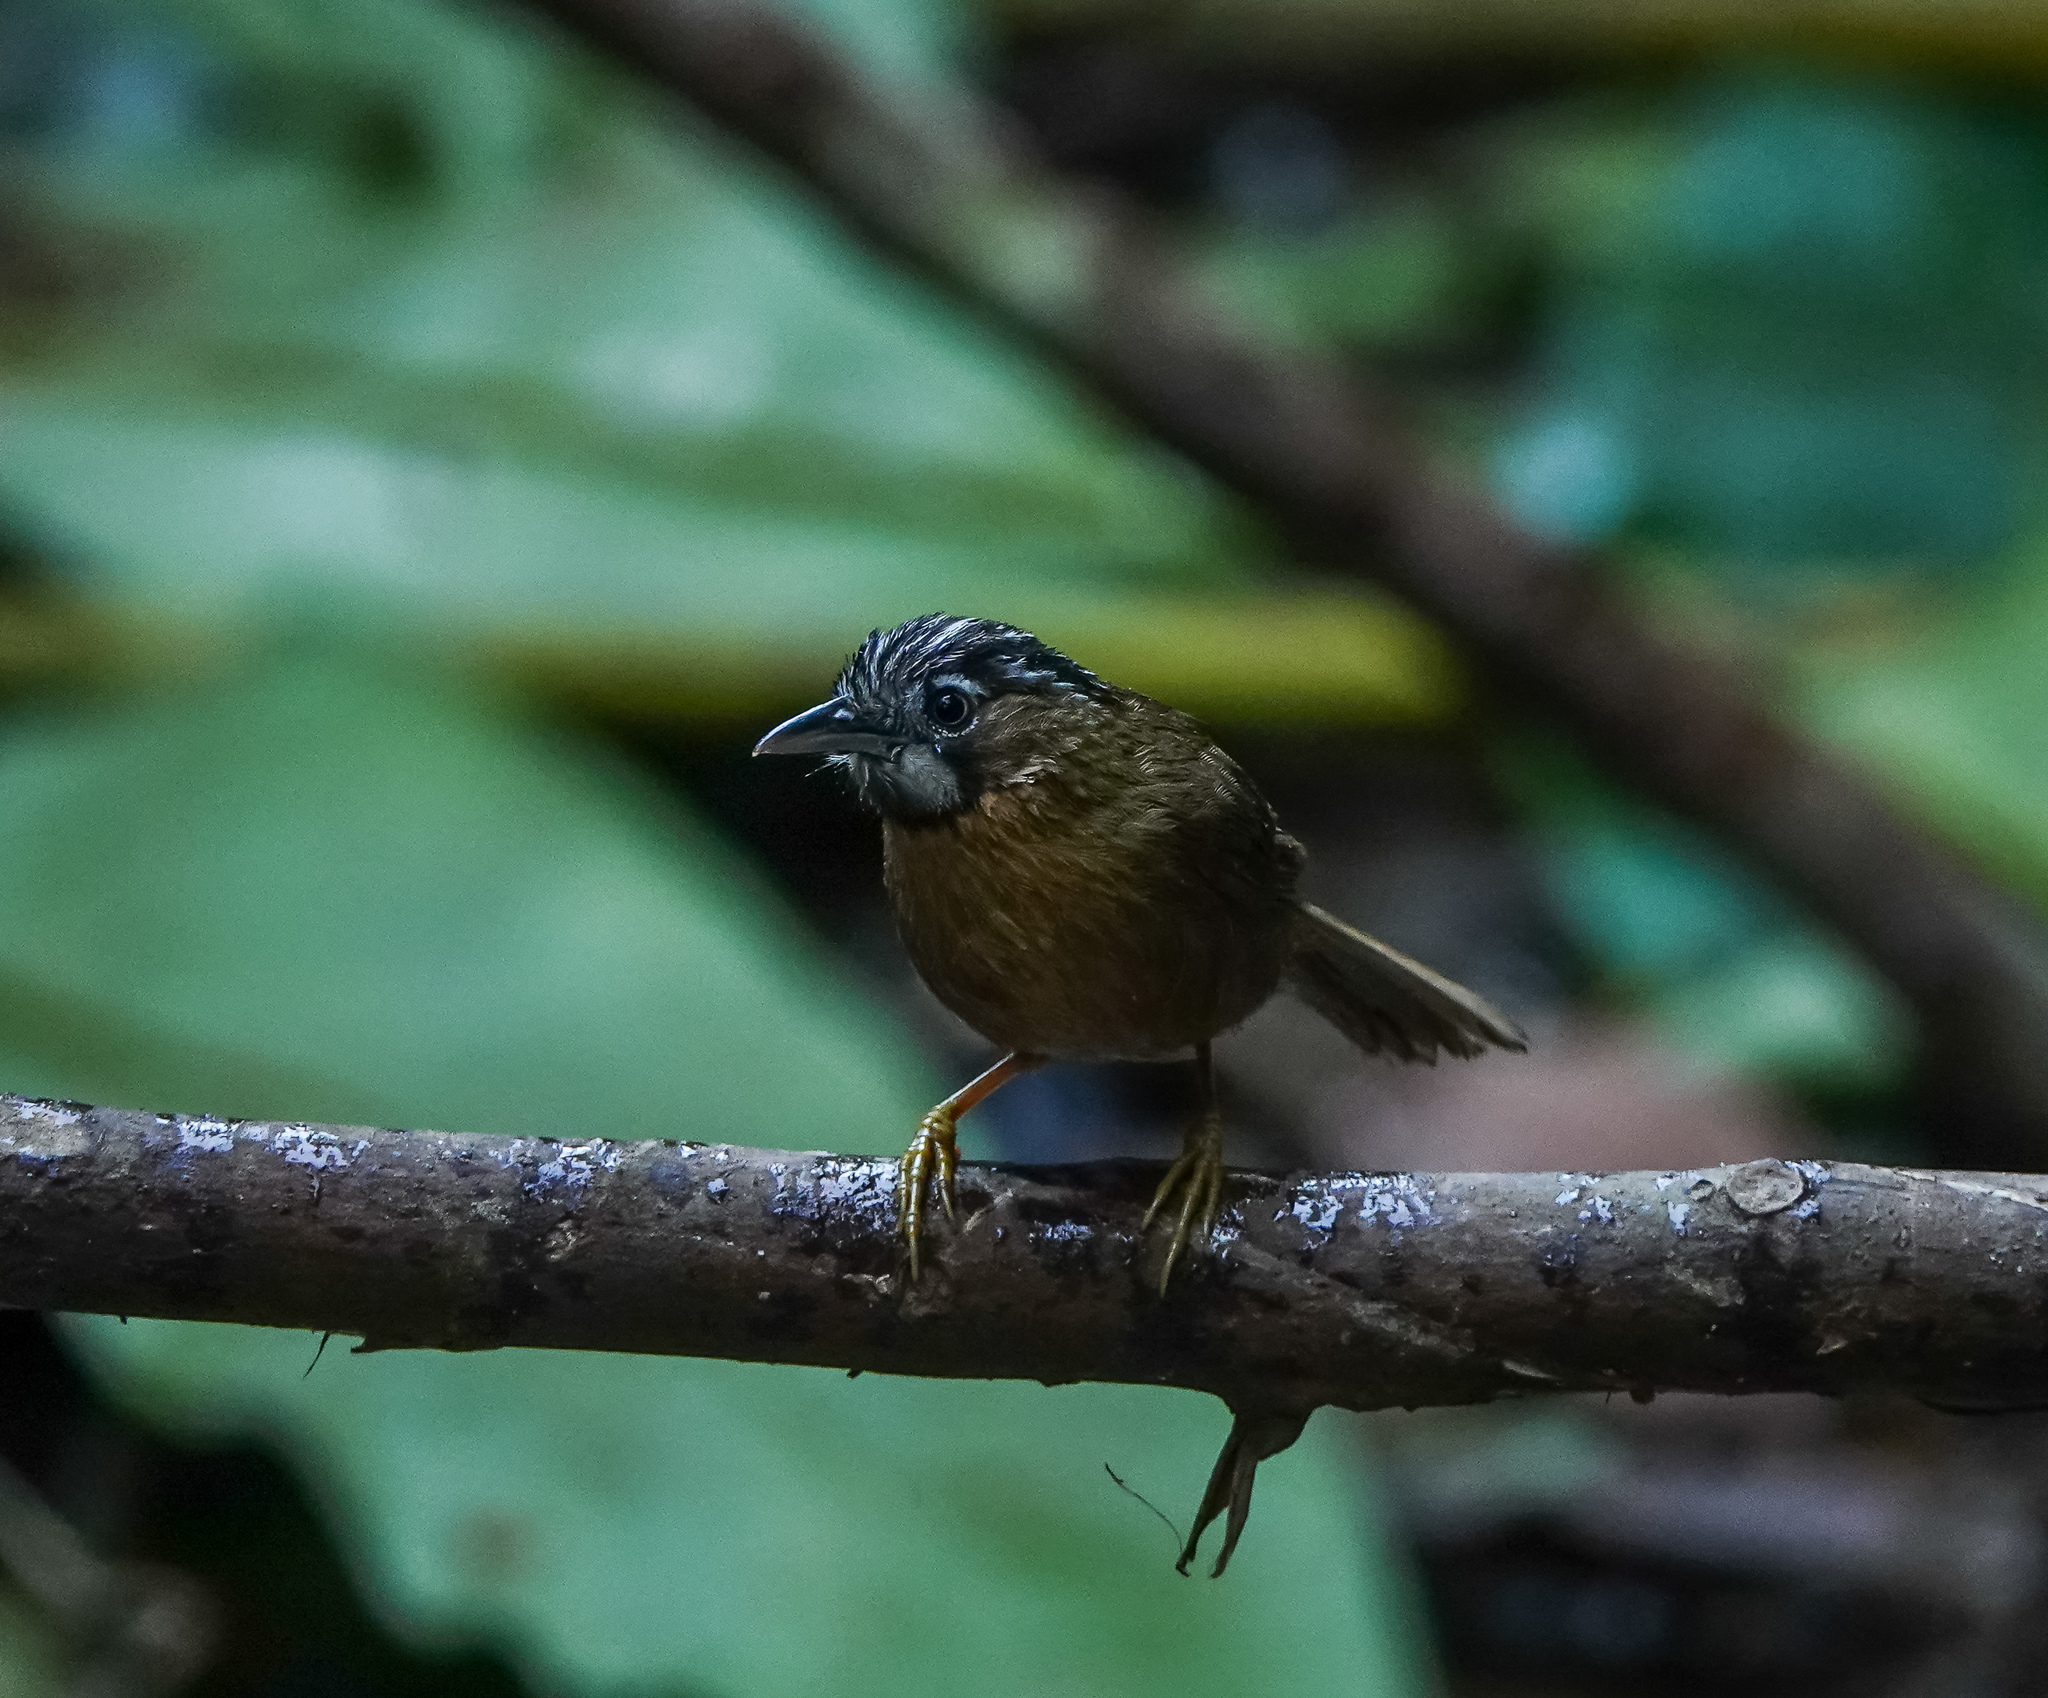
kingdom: Animalia
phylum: Chordata
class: Aves
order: Passeriformes
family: Timaliidae
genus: Stachyris
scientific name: Stachyris nigriceps
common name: Grey-throated babbler
